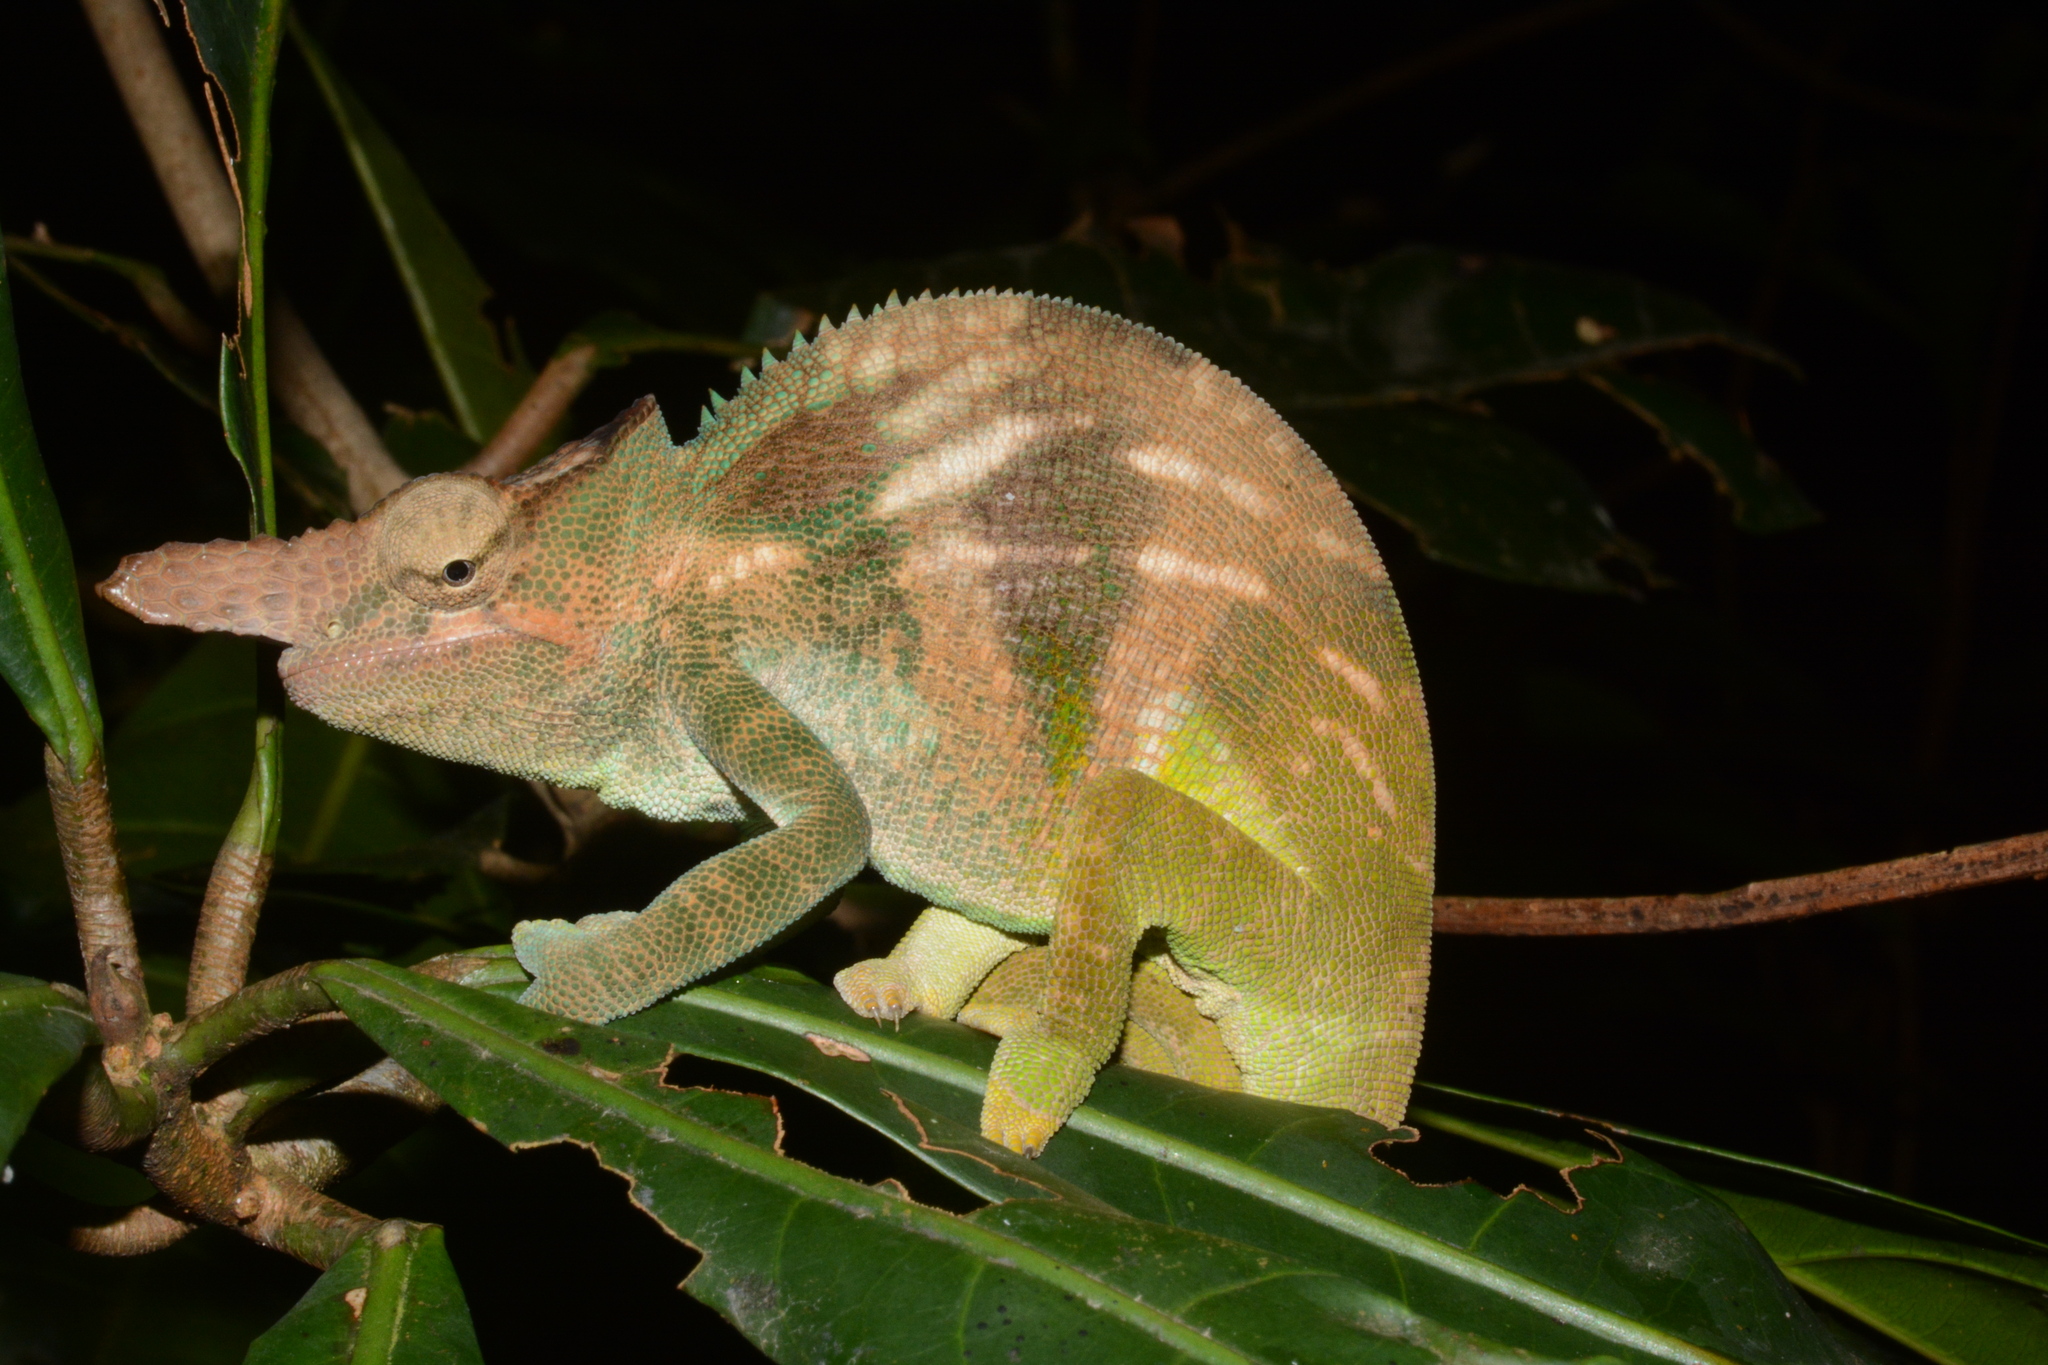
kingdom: Animalia
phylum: Chordata
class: Squamata
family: Chamaeleonidae
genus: Kinyongia
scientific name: Kinyongia fischeri
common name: Nguru blade-horned chameleon
